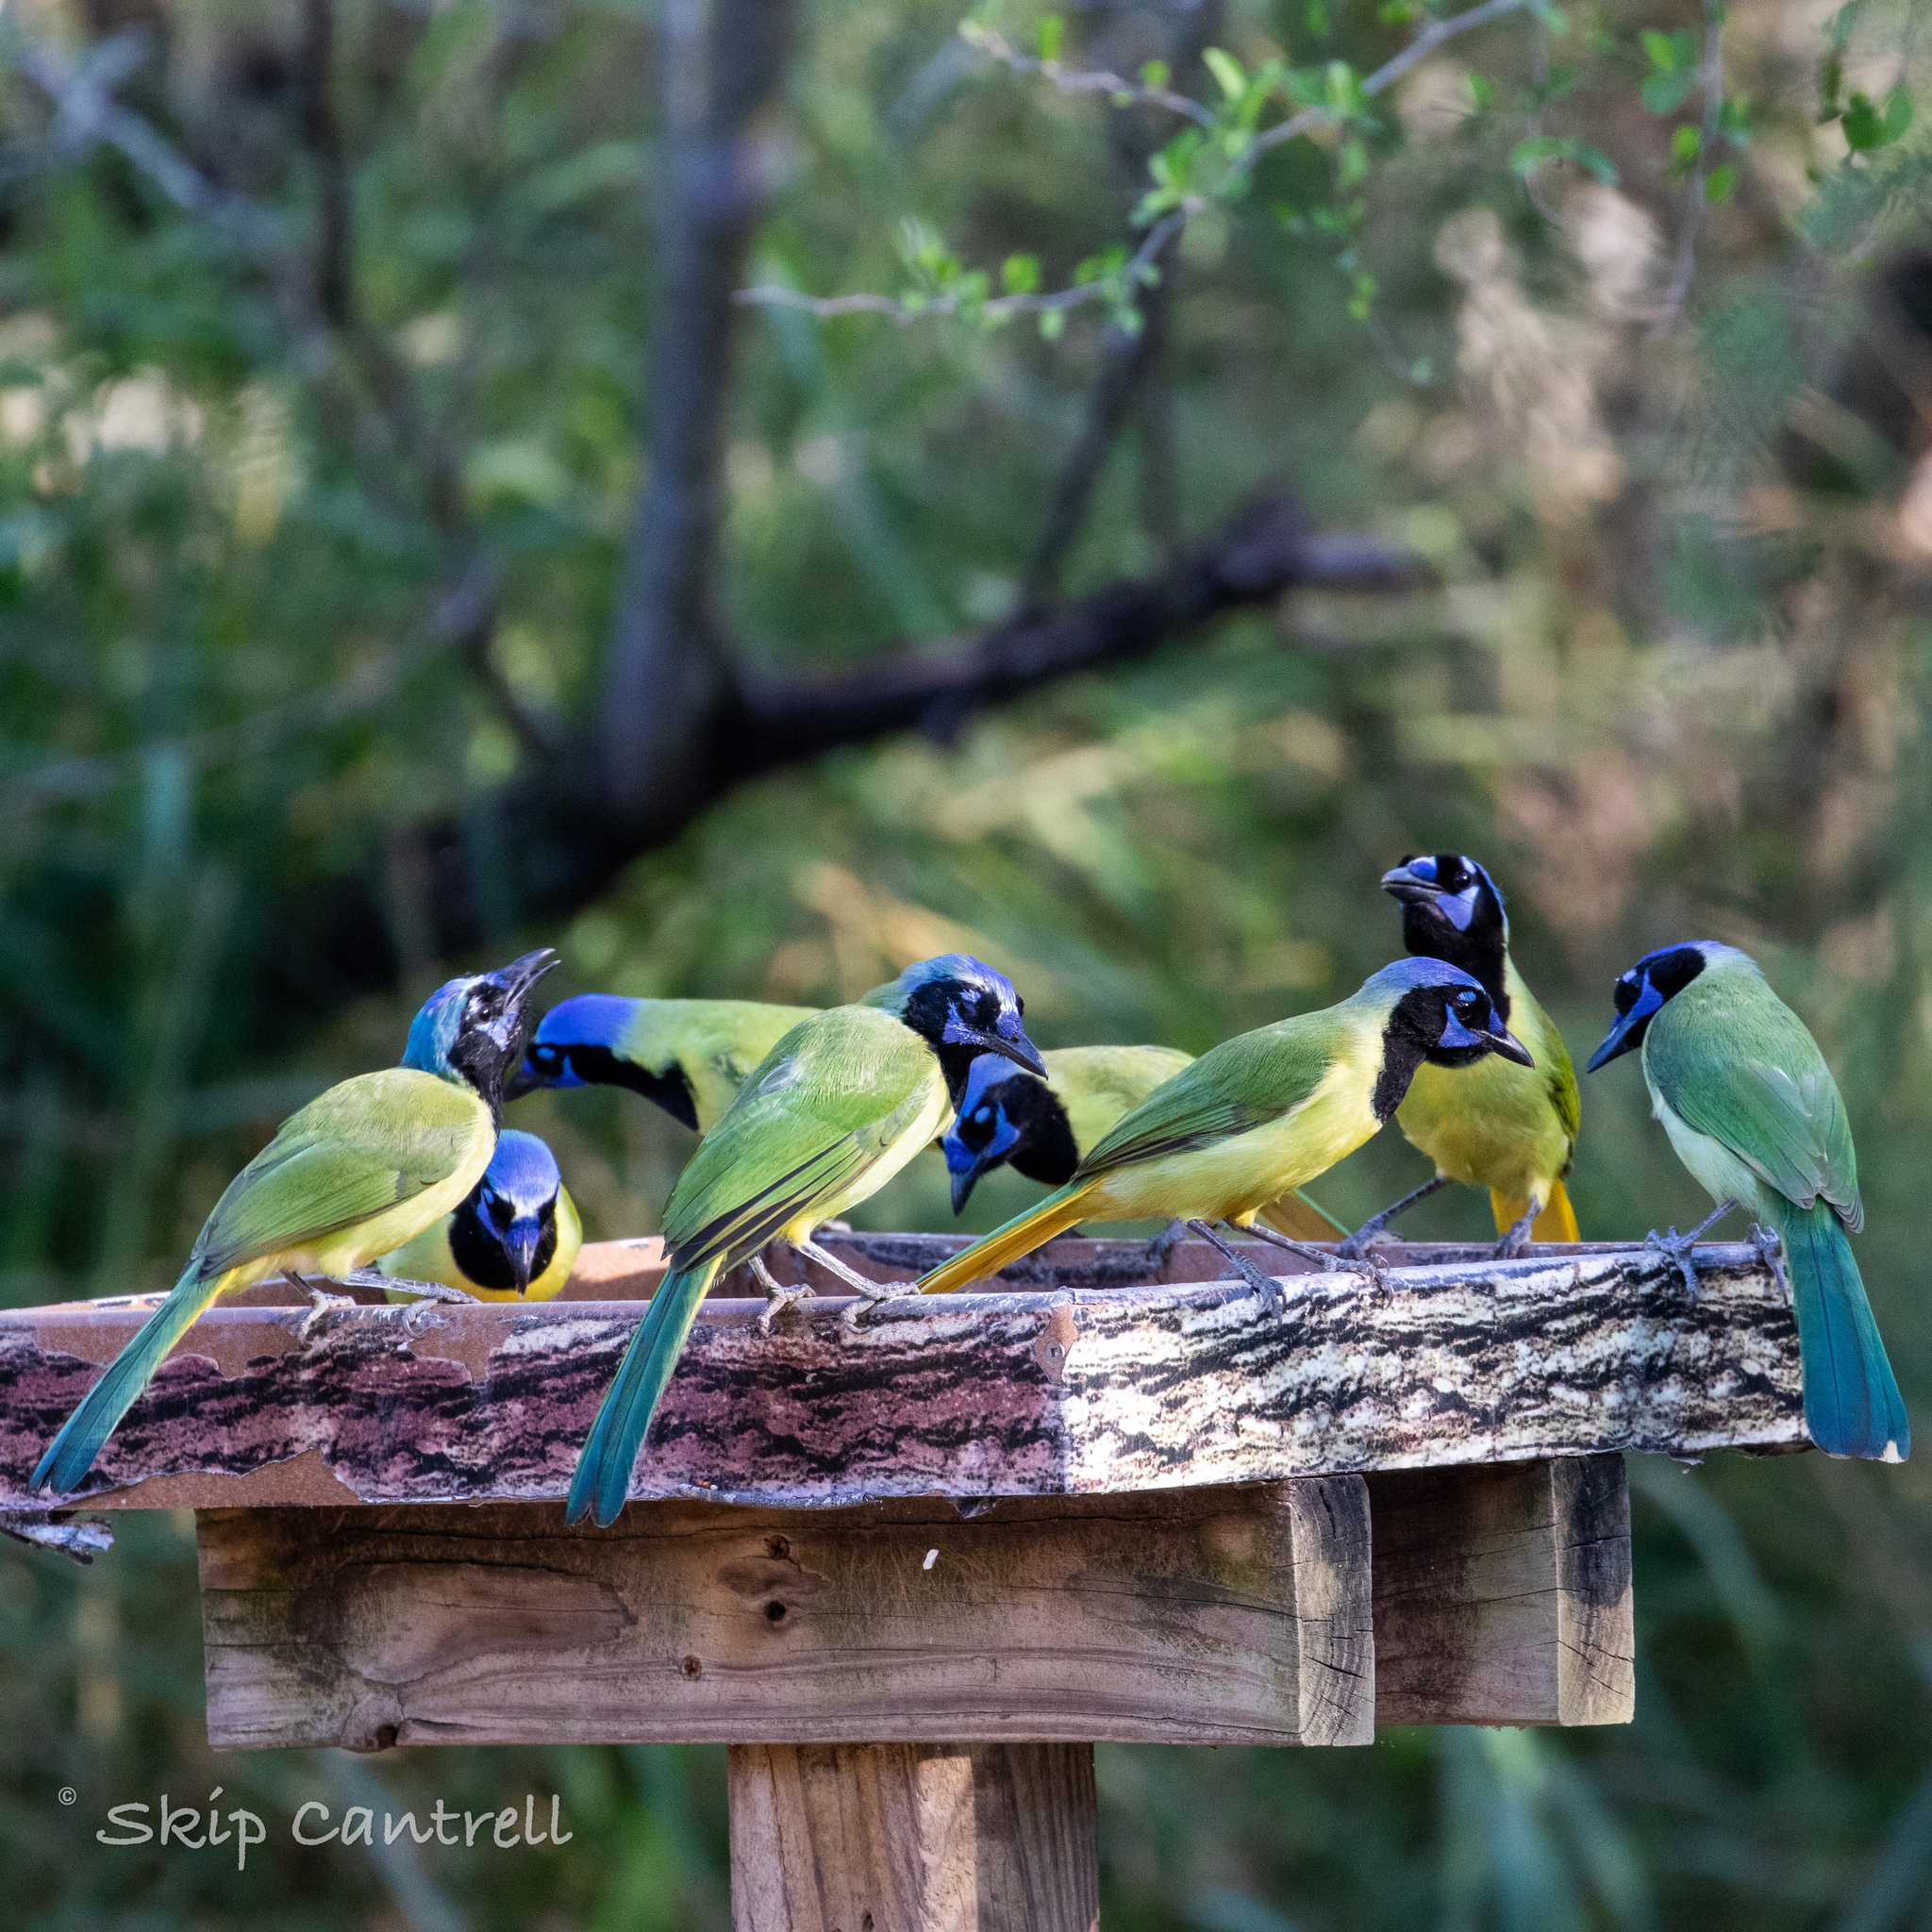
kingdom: Animalia
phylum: Chordata
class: Aves
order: Passeriformes
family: Corvidae
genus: Cyanocorax
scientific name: Cyanocorax yncas
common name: Green jay
